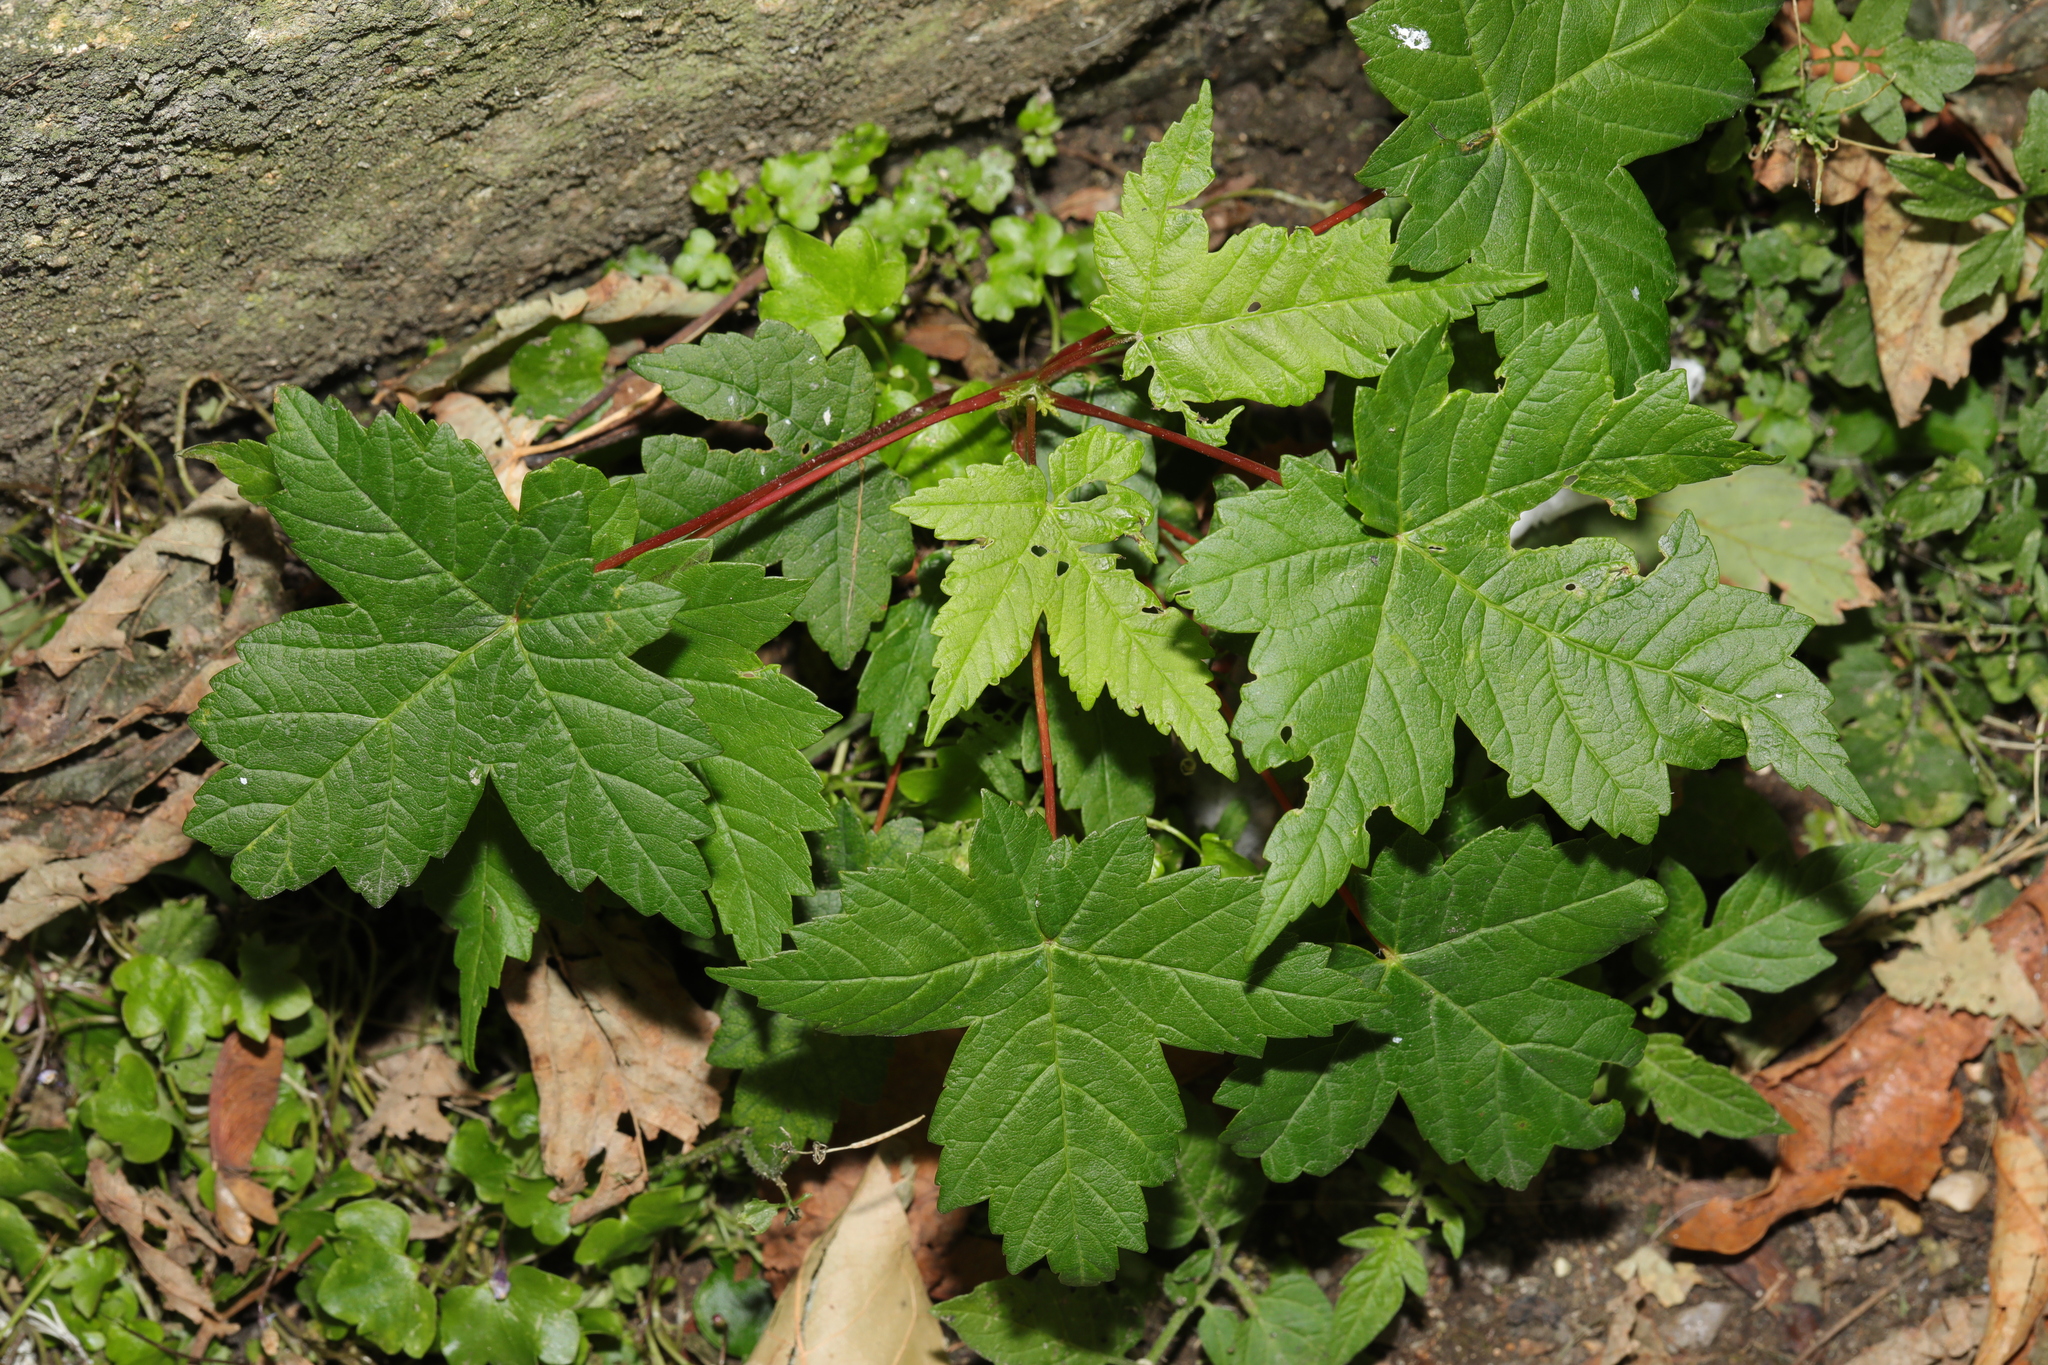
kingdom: Plantae
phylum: Tracheophyta
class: Magnoliopsida
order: Sapindales
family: Sapindaceae
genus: Acer
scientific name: Acer pseudoplatanus
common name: Sycamore
